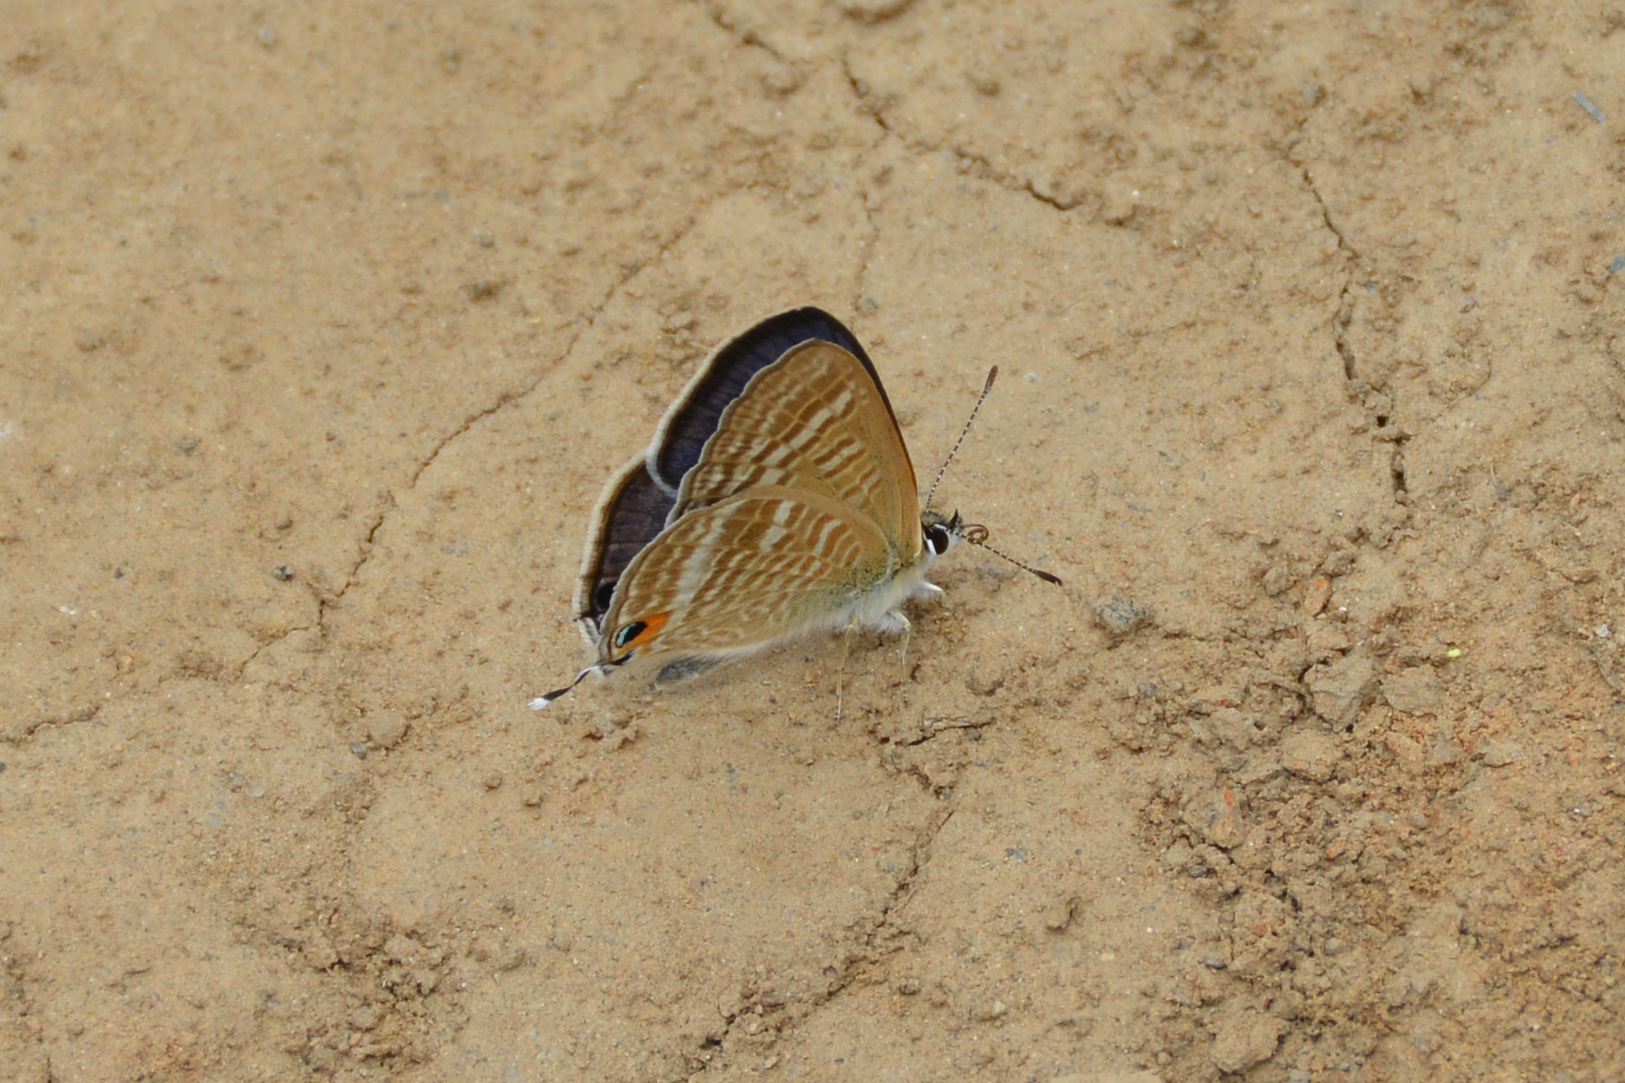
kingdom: Animalia
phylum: Arthropoda
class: Insecta
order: Lepidoptera
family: Lycaenidae
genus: Lampides
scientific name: Lampides boeticus
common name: Long-tailed blue
